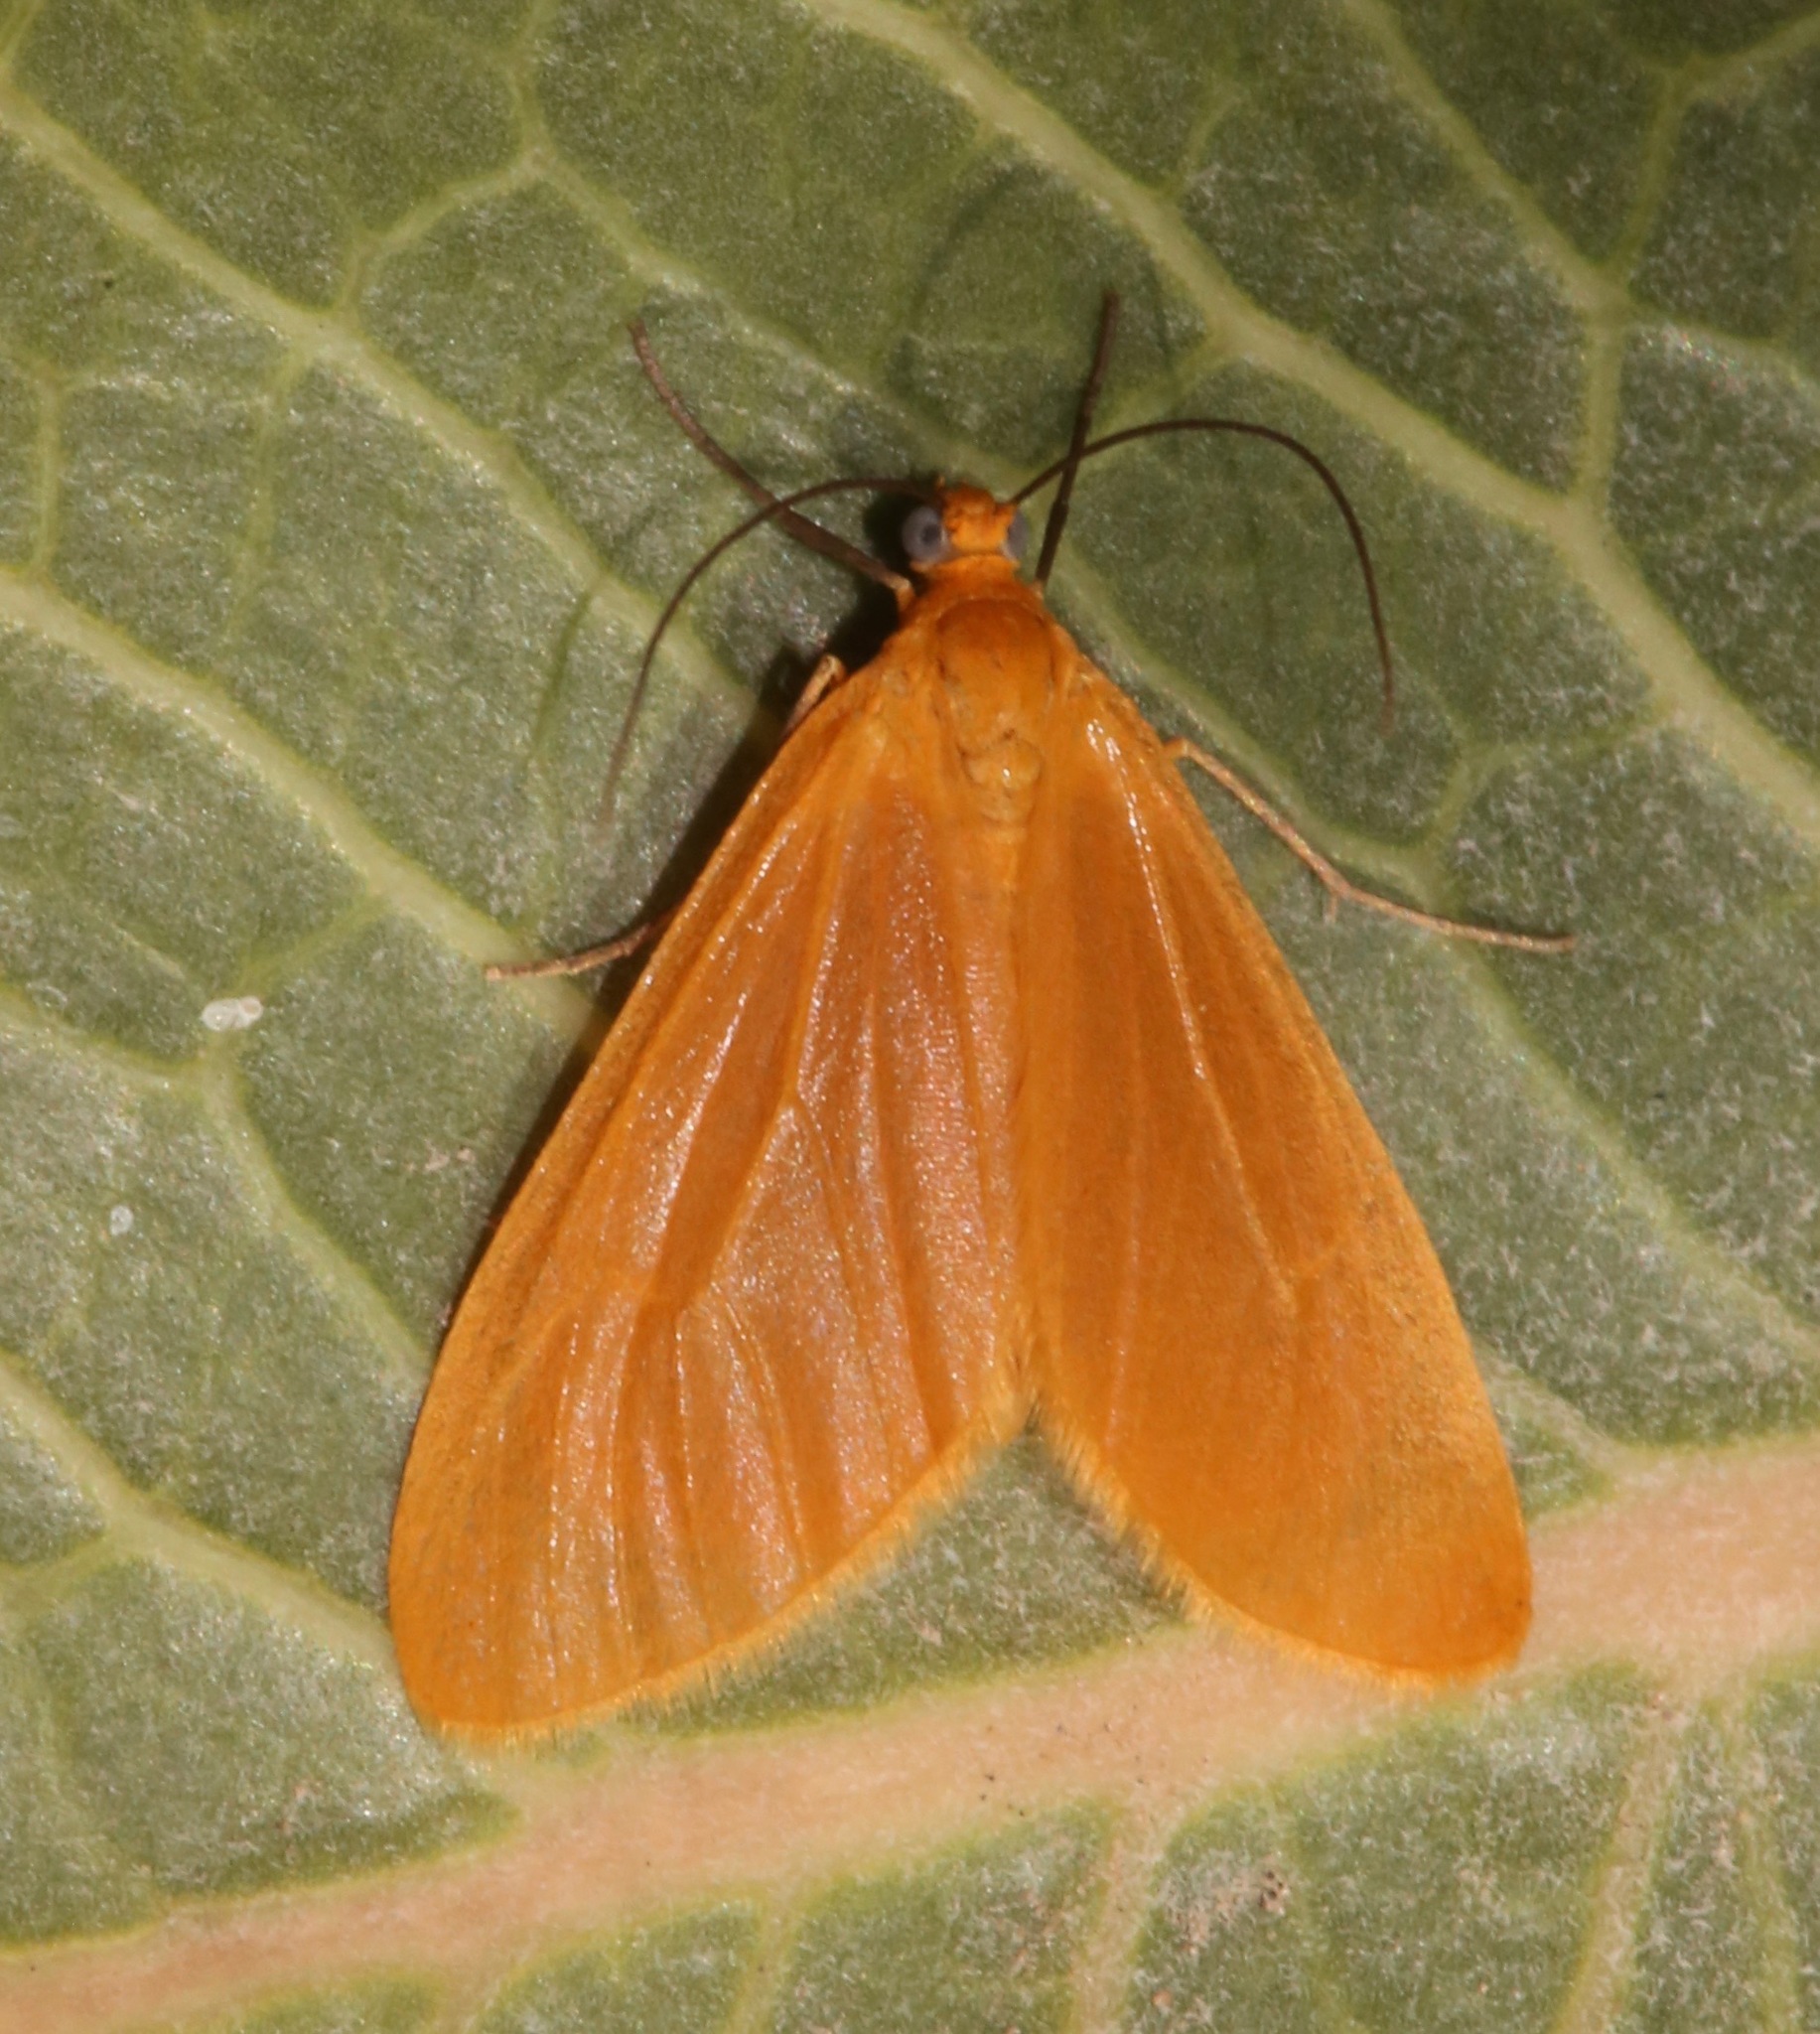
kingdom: Animalia
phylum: Arthropoda
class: Insecta
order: Lepidoptera
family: Geometridae
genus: Eubaphe
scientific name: Eubaphe unicolor
